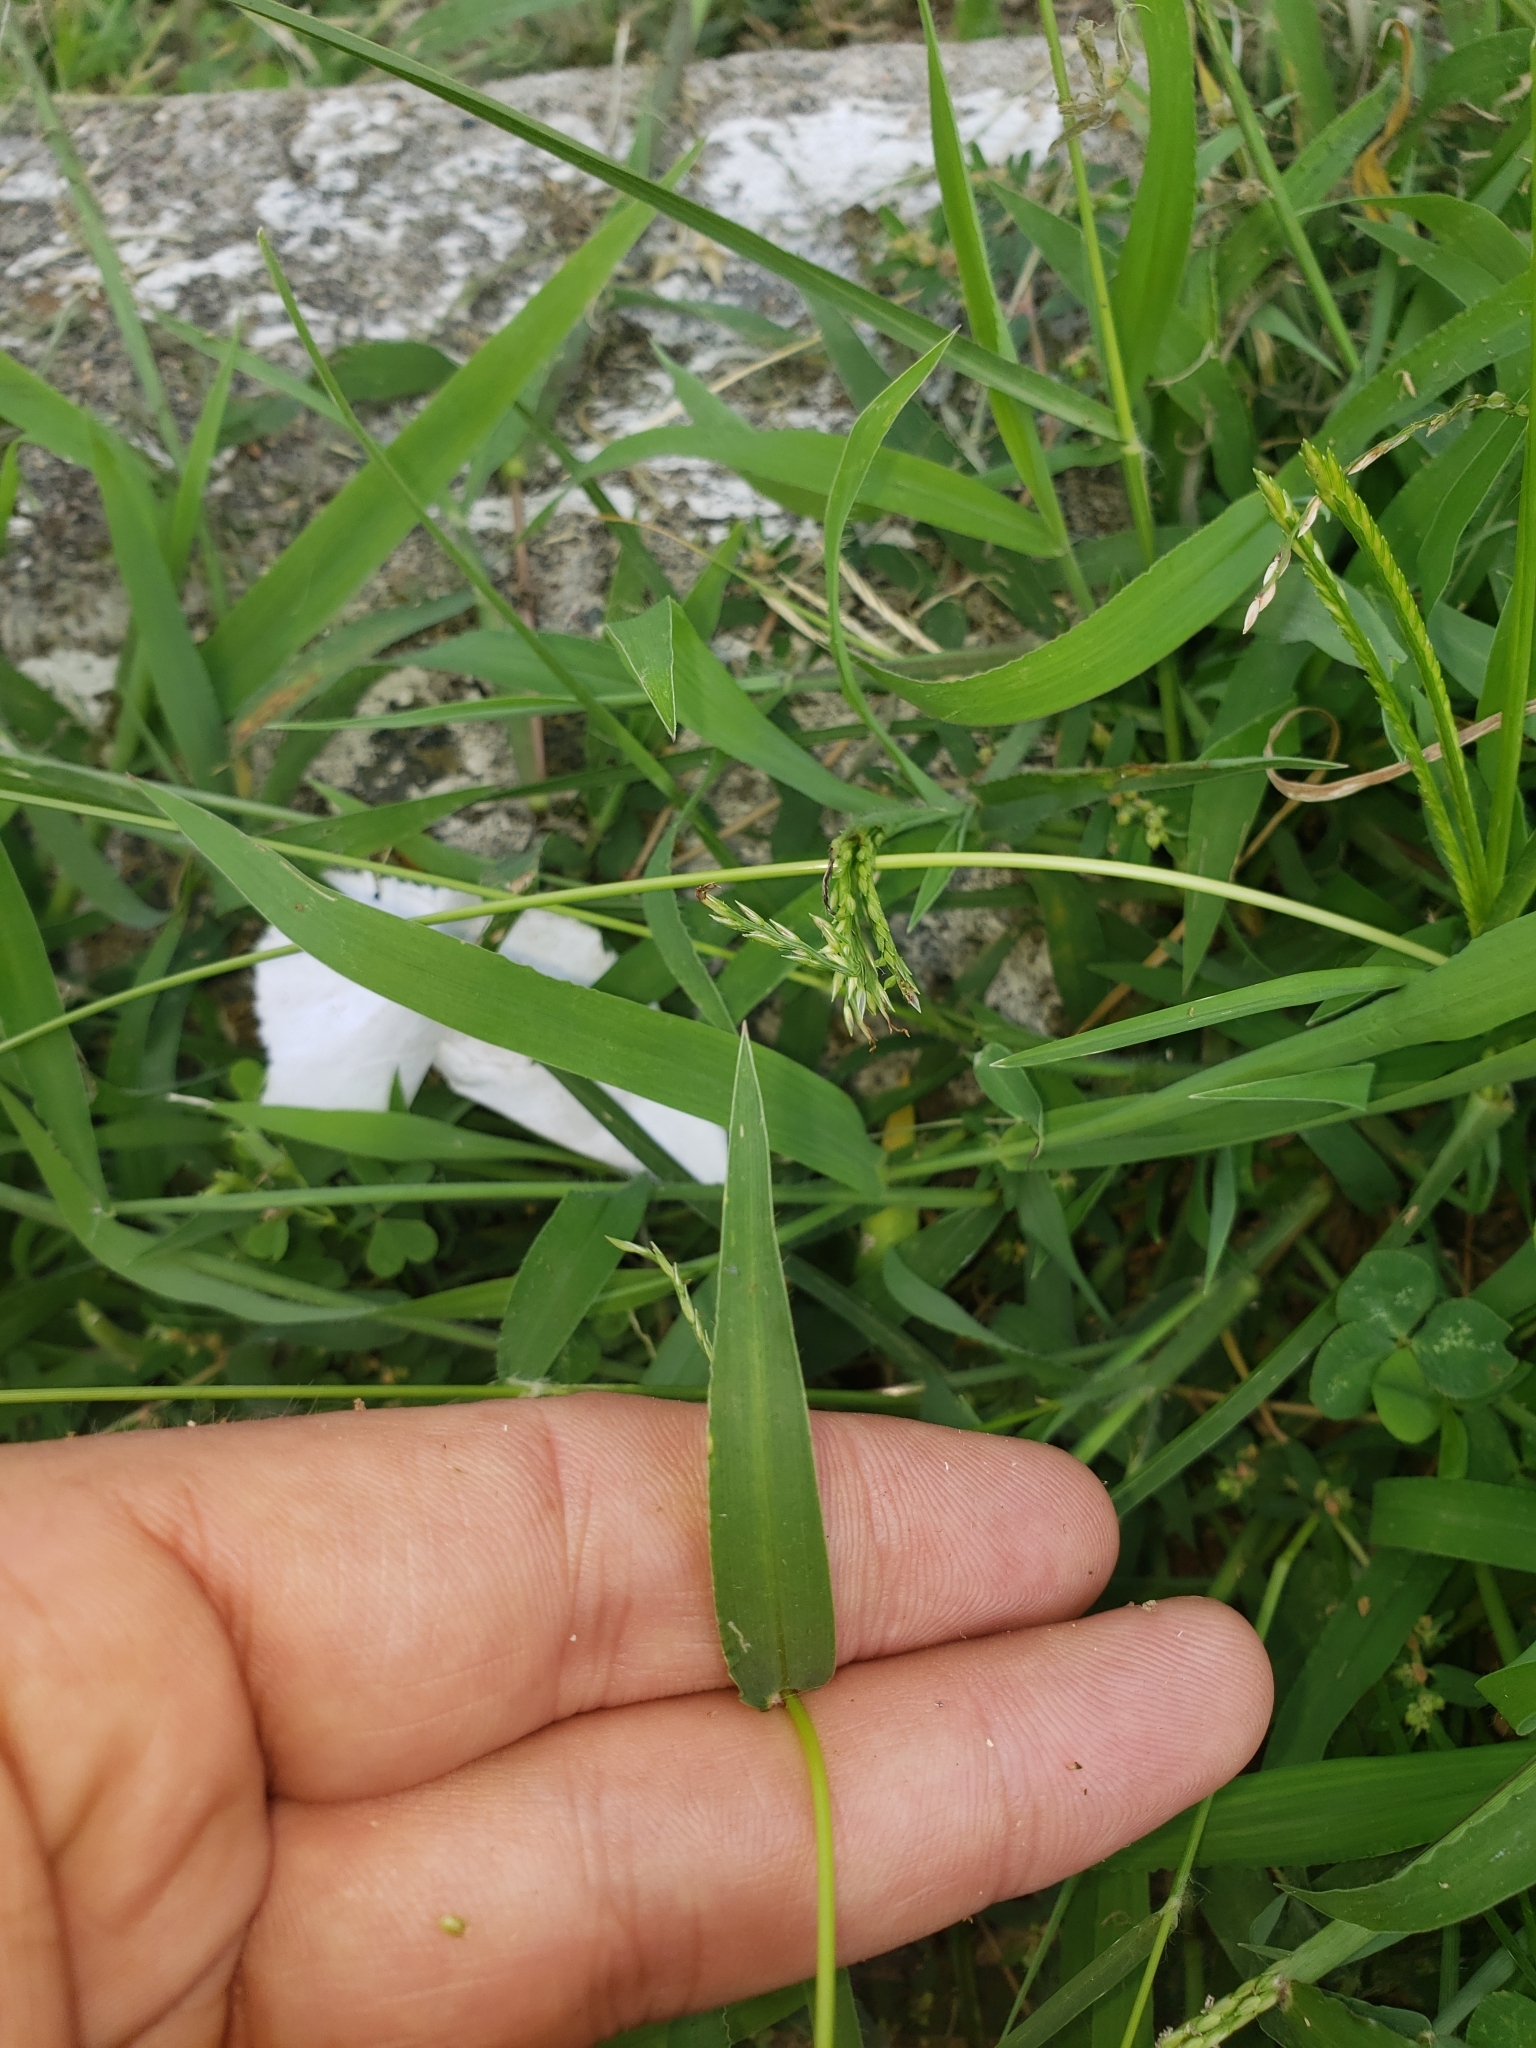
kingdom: Plantae
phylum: Tracheophyta
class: Liliopsida
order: Poales
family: Poaceae
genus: Eleusine
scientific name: Eleusine indica
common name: Yard-grass
